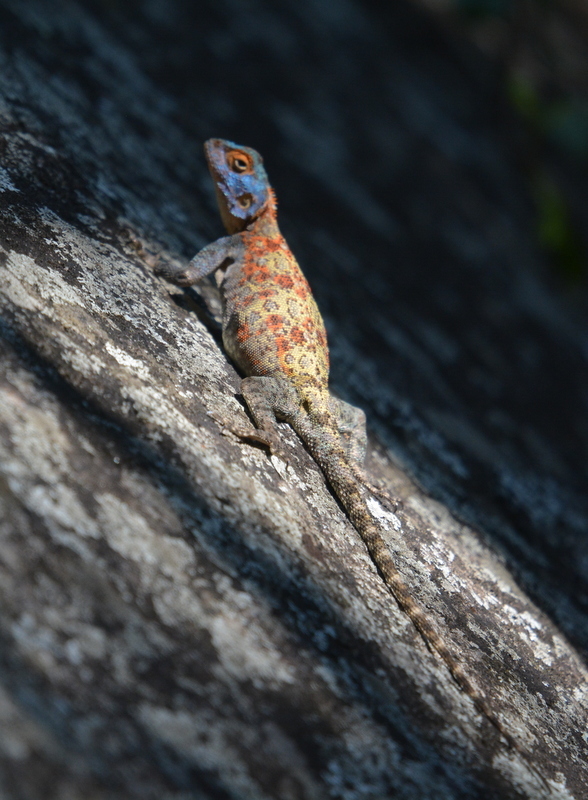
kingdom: Animalia
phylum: Chordata
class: Squamata
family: Agamidae
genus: Agama
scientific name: Agama kirkii
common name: Kirk's rock agama
